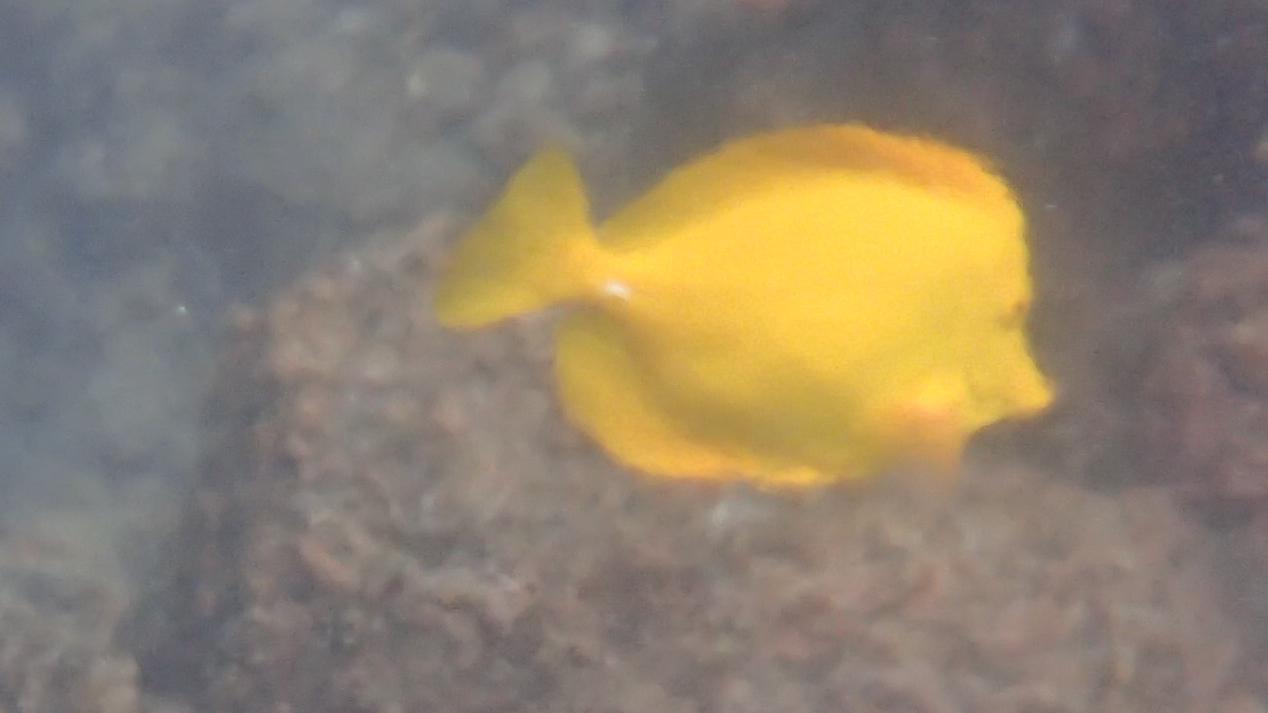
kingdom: Animalia
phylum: Chordata
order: Perciformes
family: Acanthuridae
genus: Zebrasoma
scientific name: Zebrasoma flavescens
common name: Yellow tang
